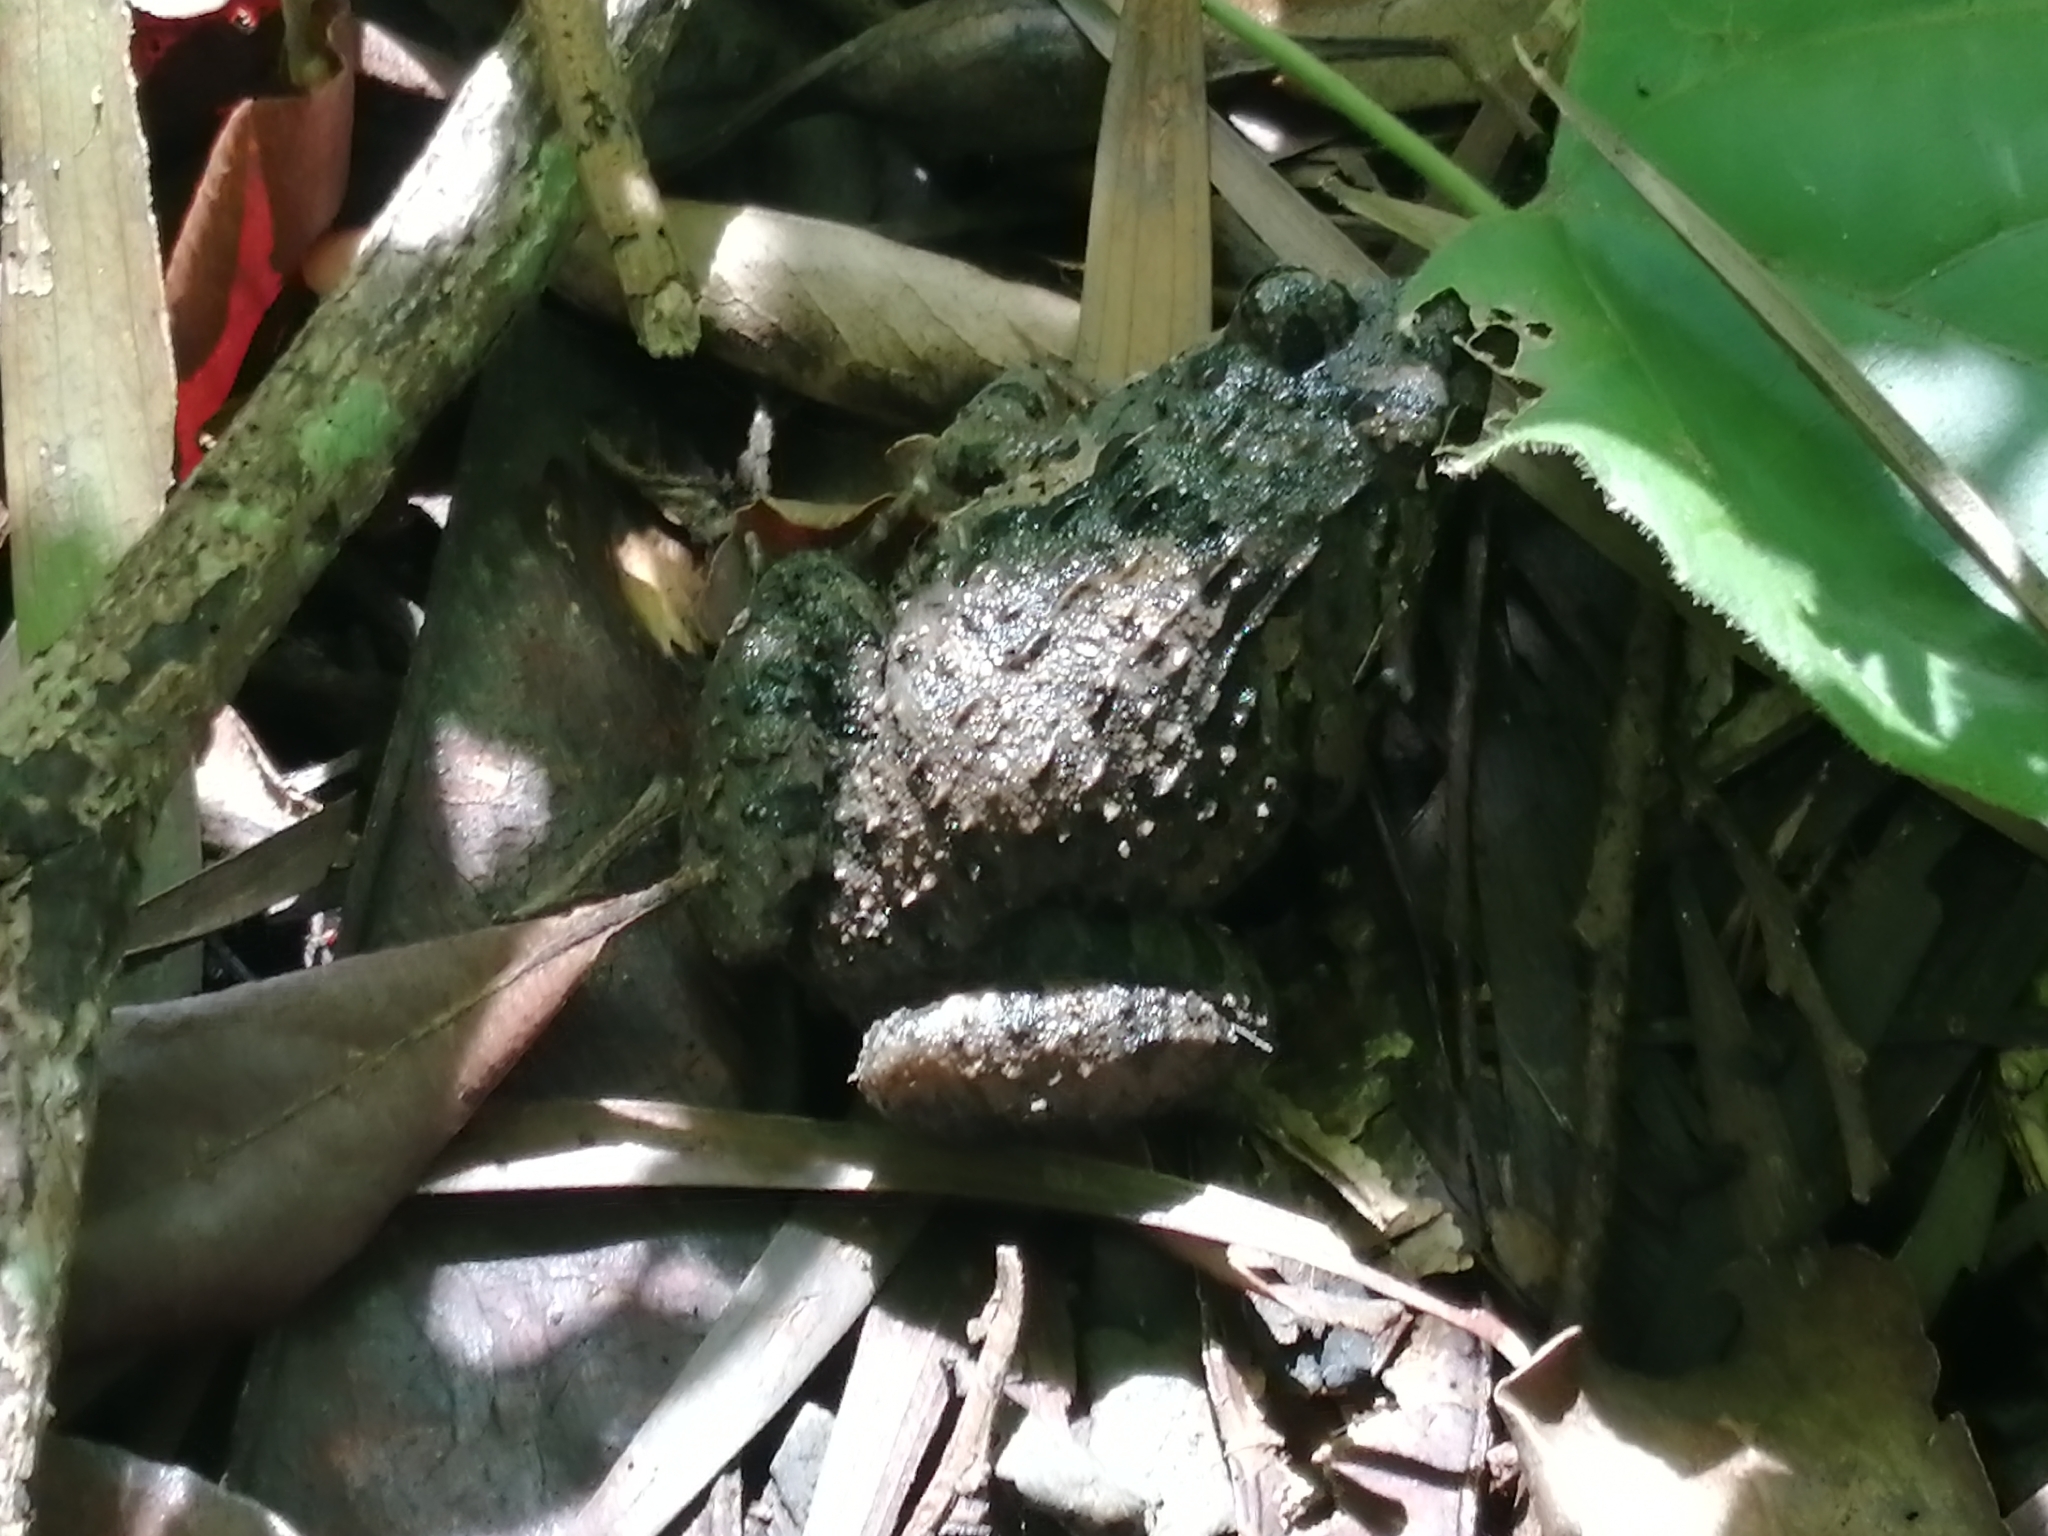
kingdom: Animalia
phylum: Chordata
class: Amphibia
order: Anura
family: Dicroglossidae
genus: Fejervarya
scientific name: Fejervarya limnocharis
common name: Asian grass frog/common pond frog/field frog/grass frog/indian rice frog
